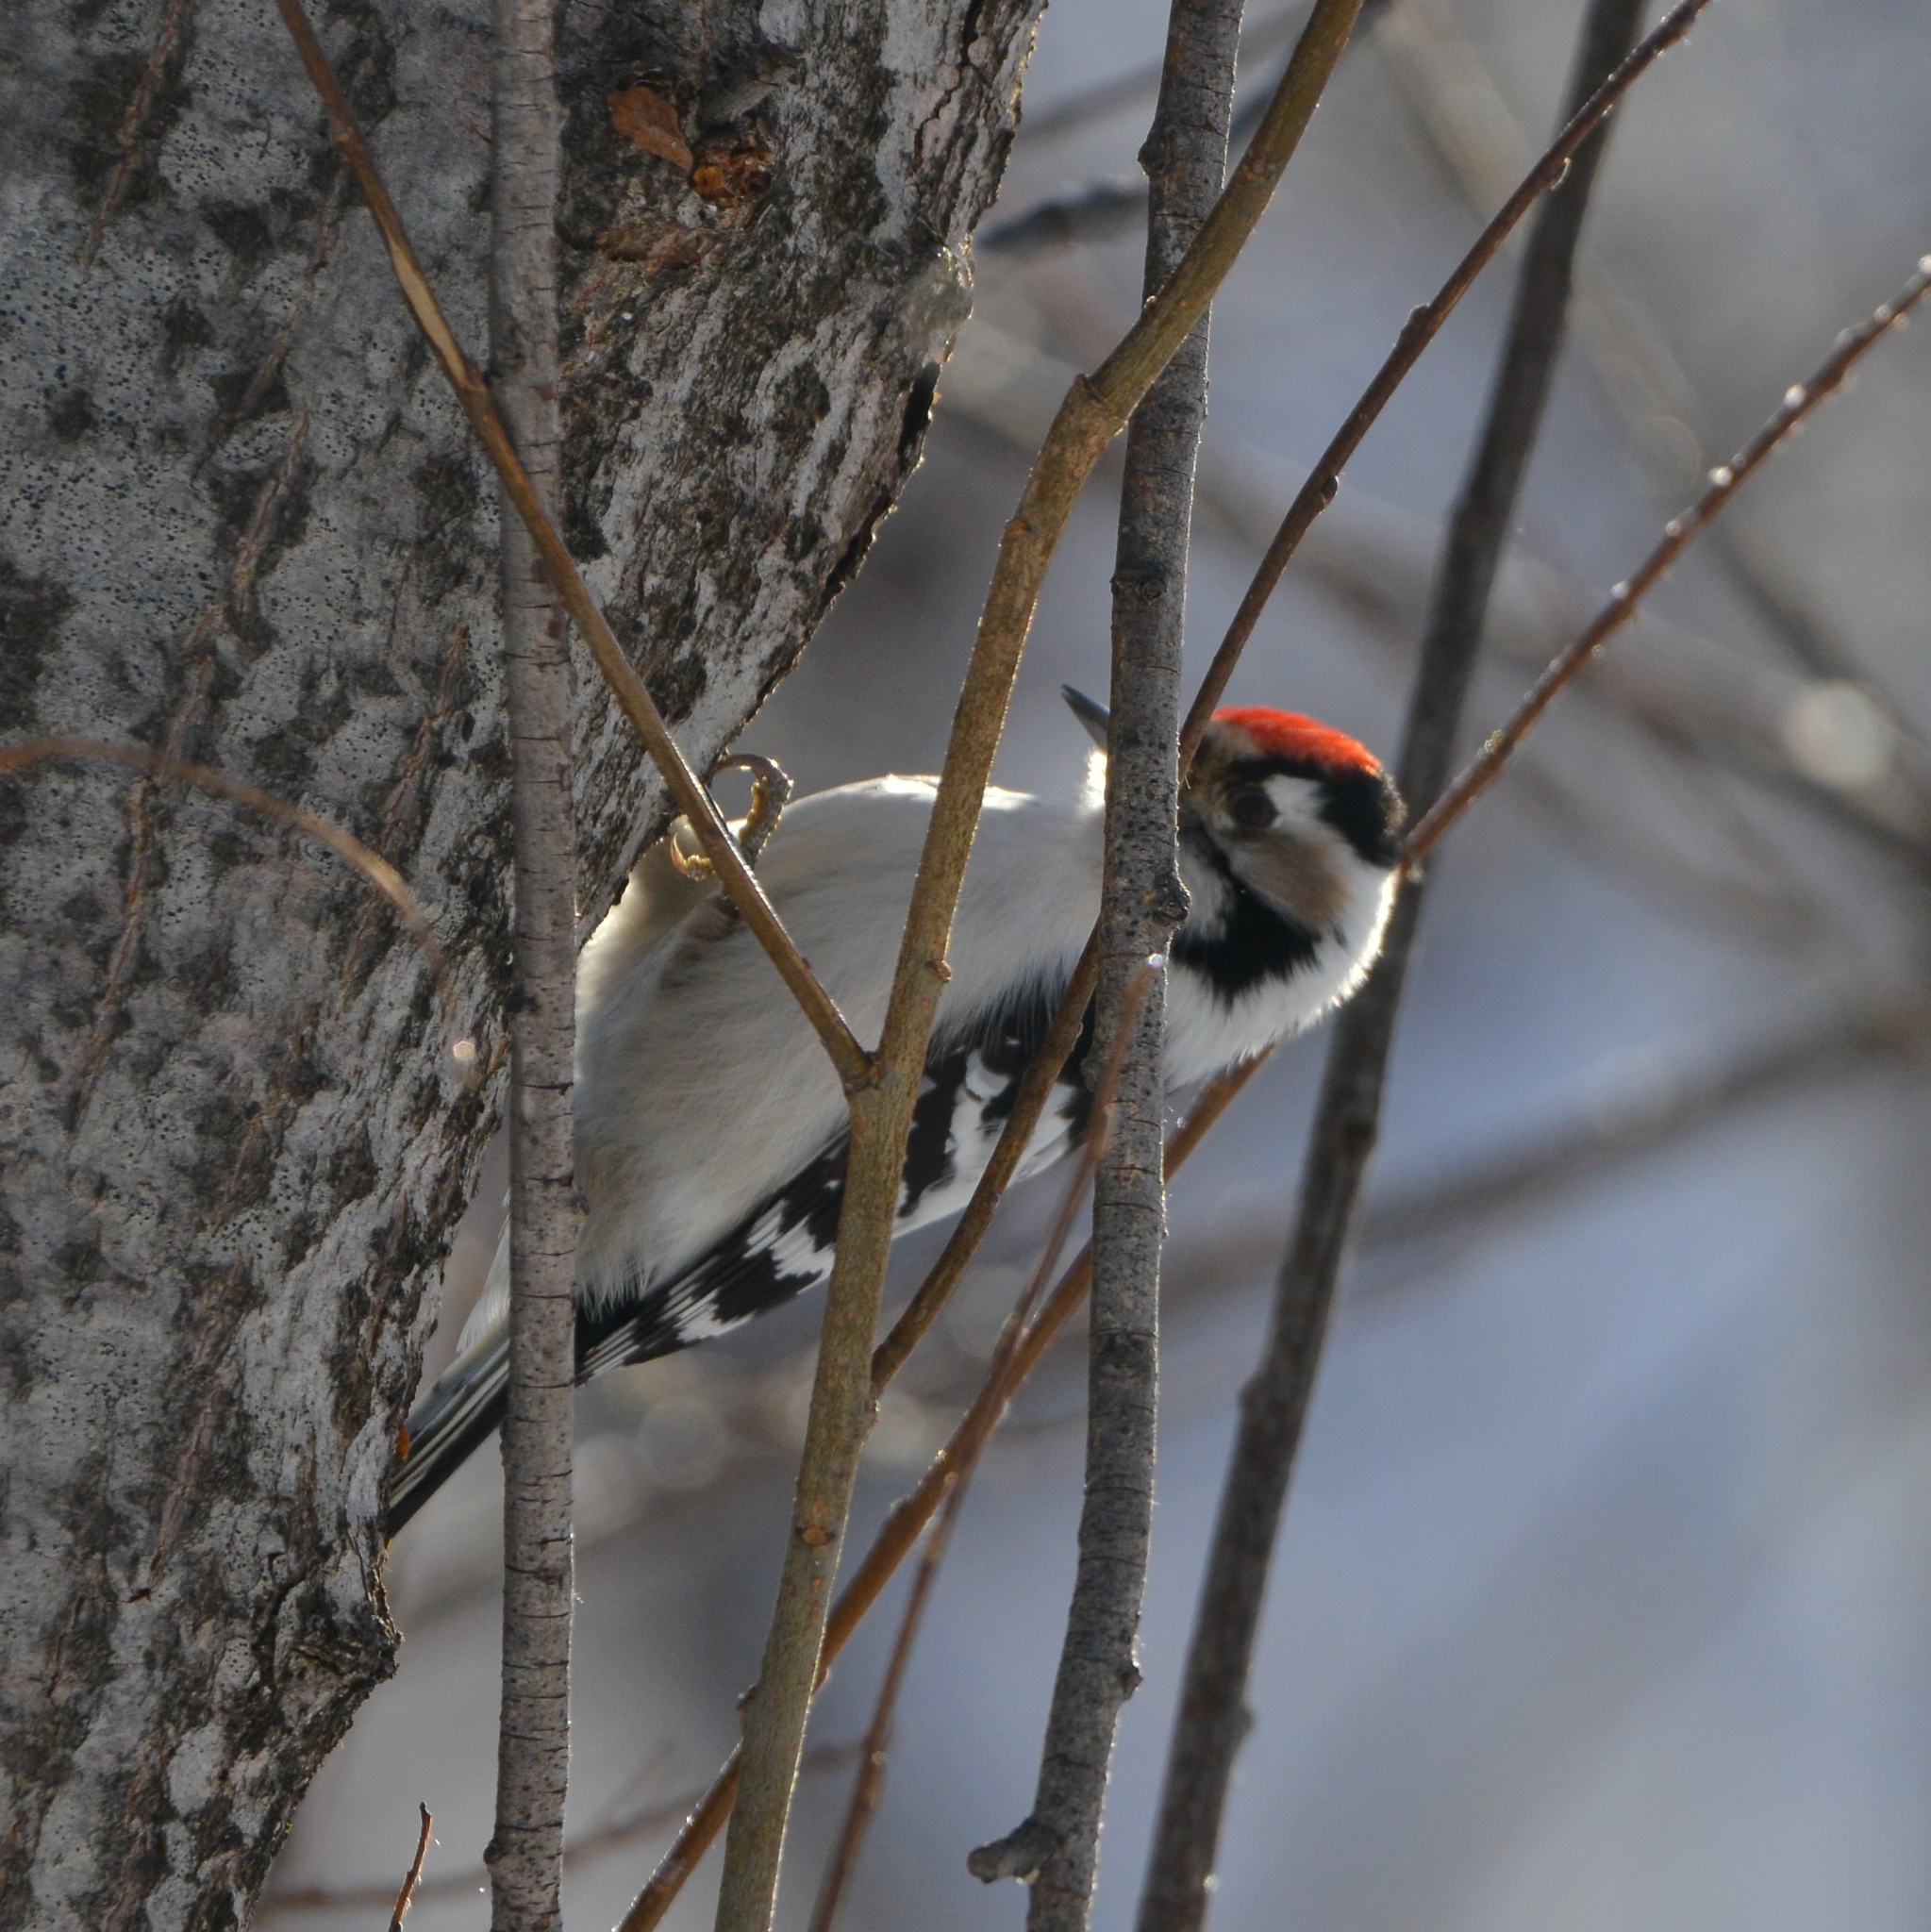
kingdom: Animalia
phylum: Chordata
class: Aves
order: Piciformes
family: Picidae
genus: Dryobates
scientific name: Dryobates minor
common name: Lesser spotted woodpecker
